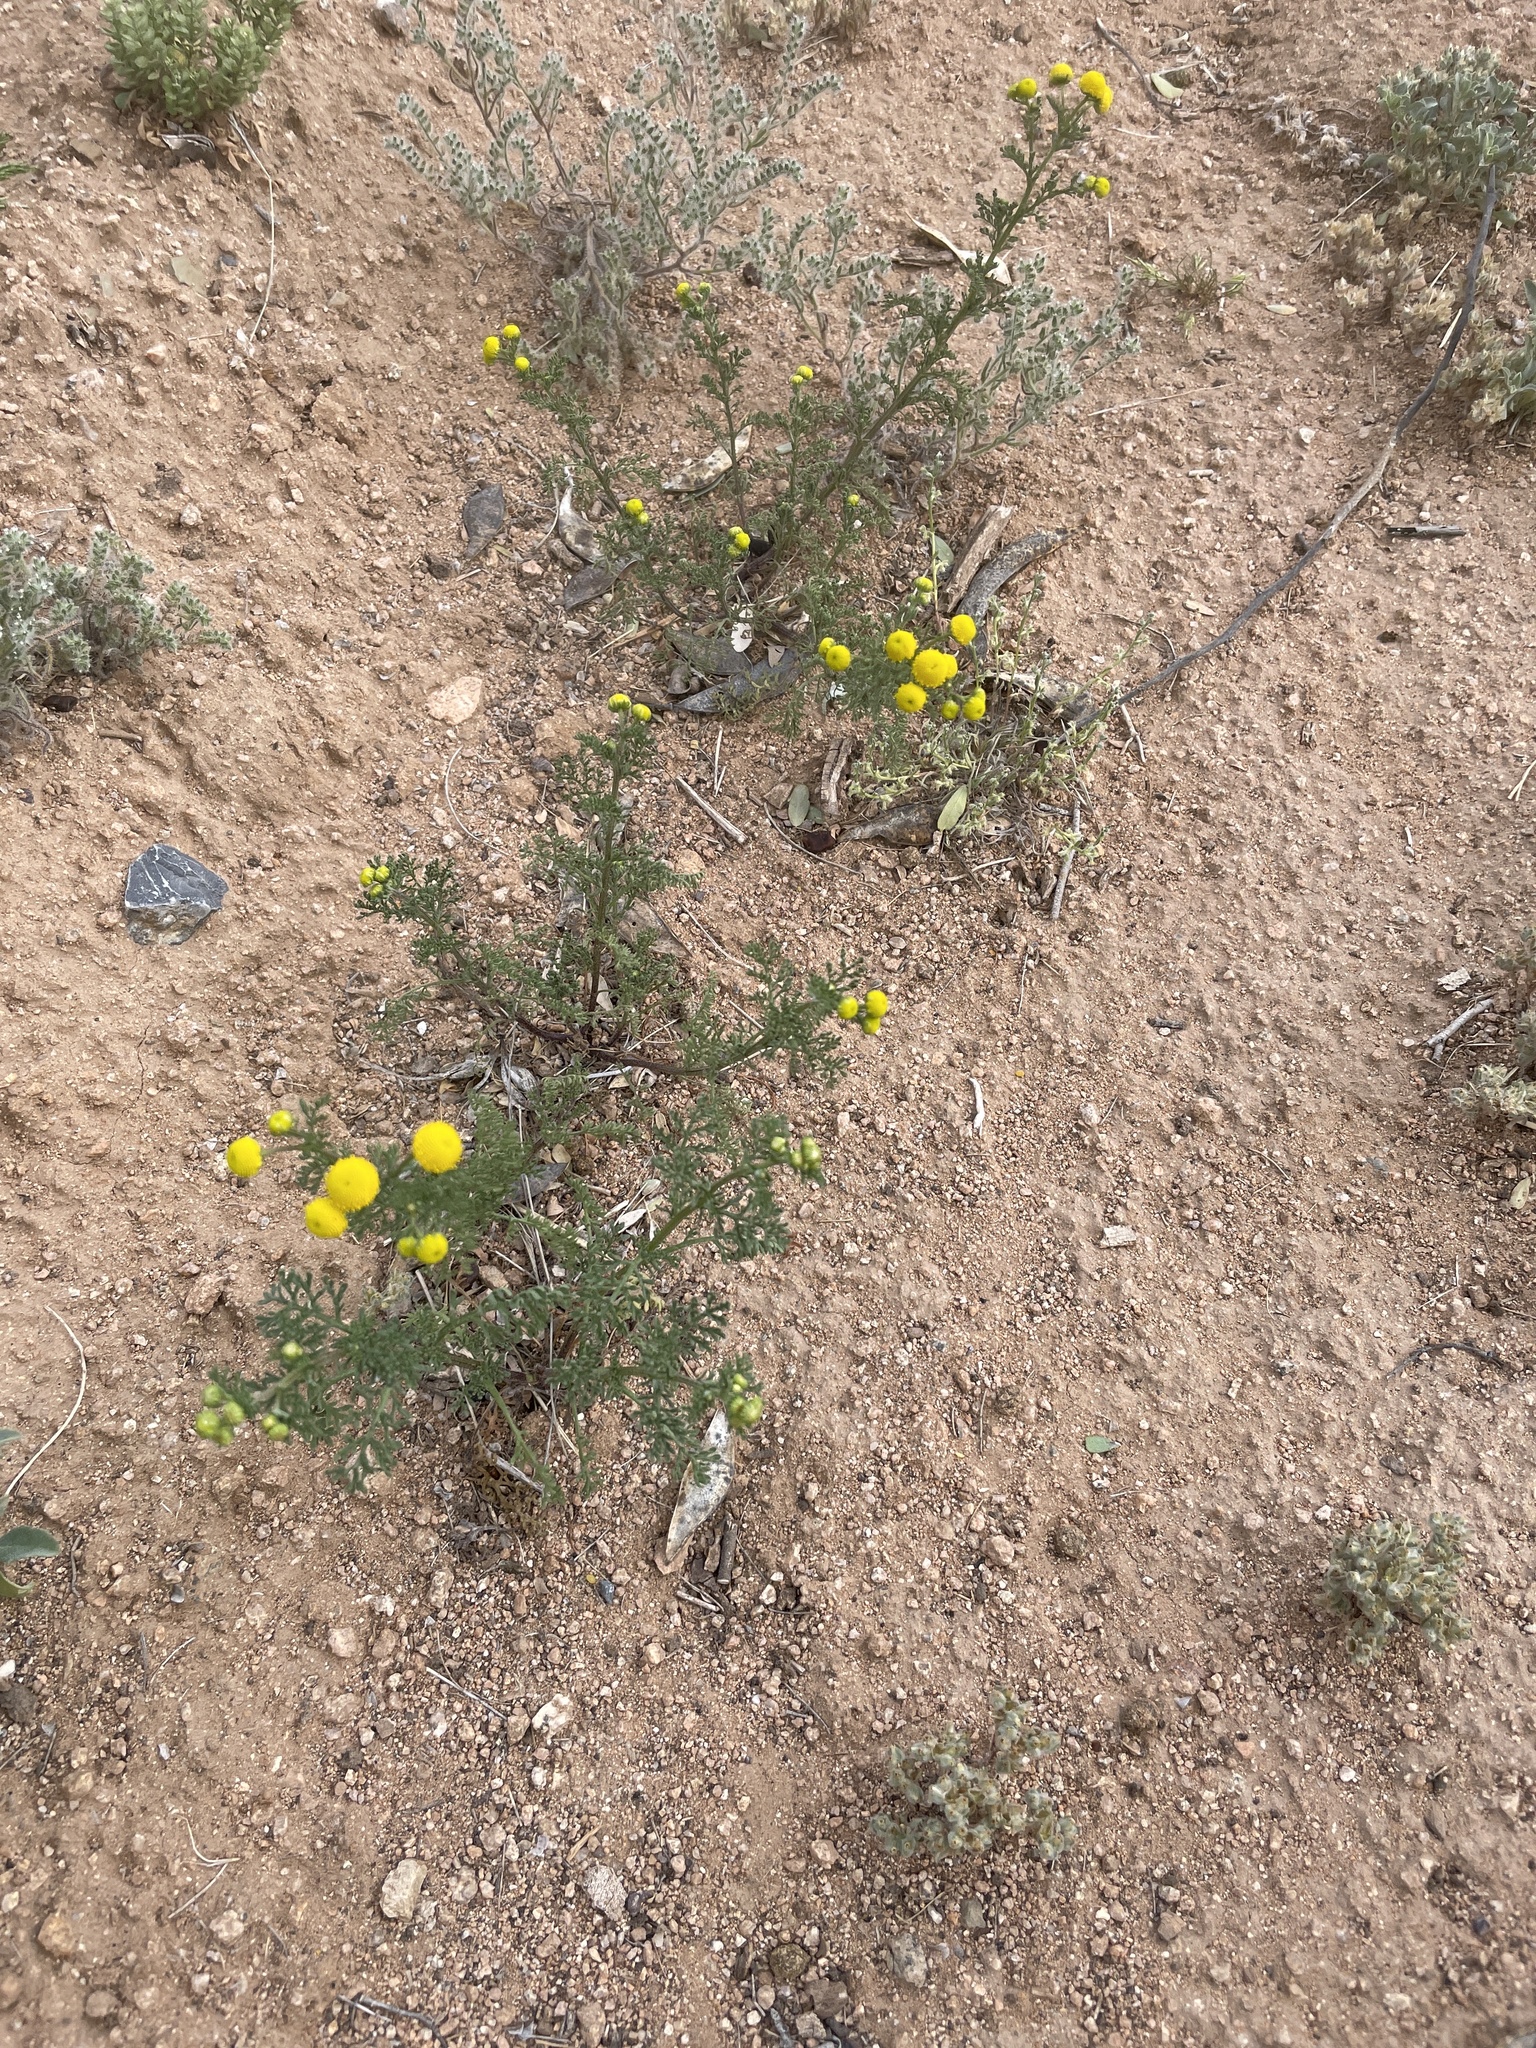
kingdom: Plantae
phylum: Tracheophyta
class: Magnoliopsida
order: Asterales
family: Asteraceae
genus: Oncosiphon
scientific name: Oncosiphon pilulifer
